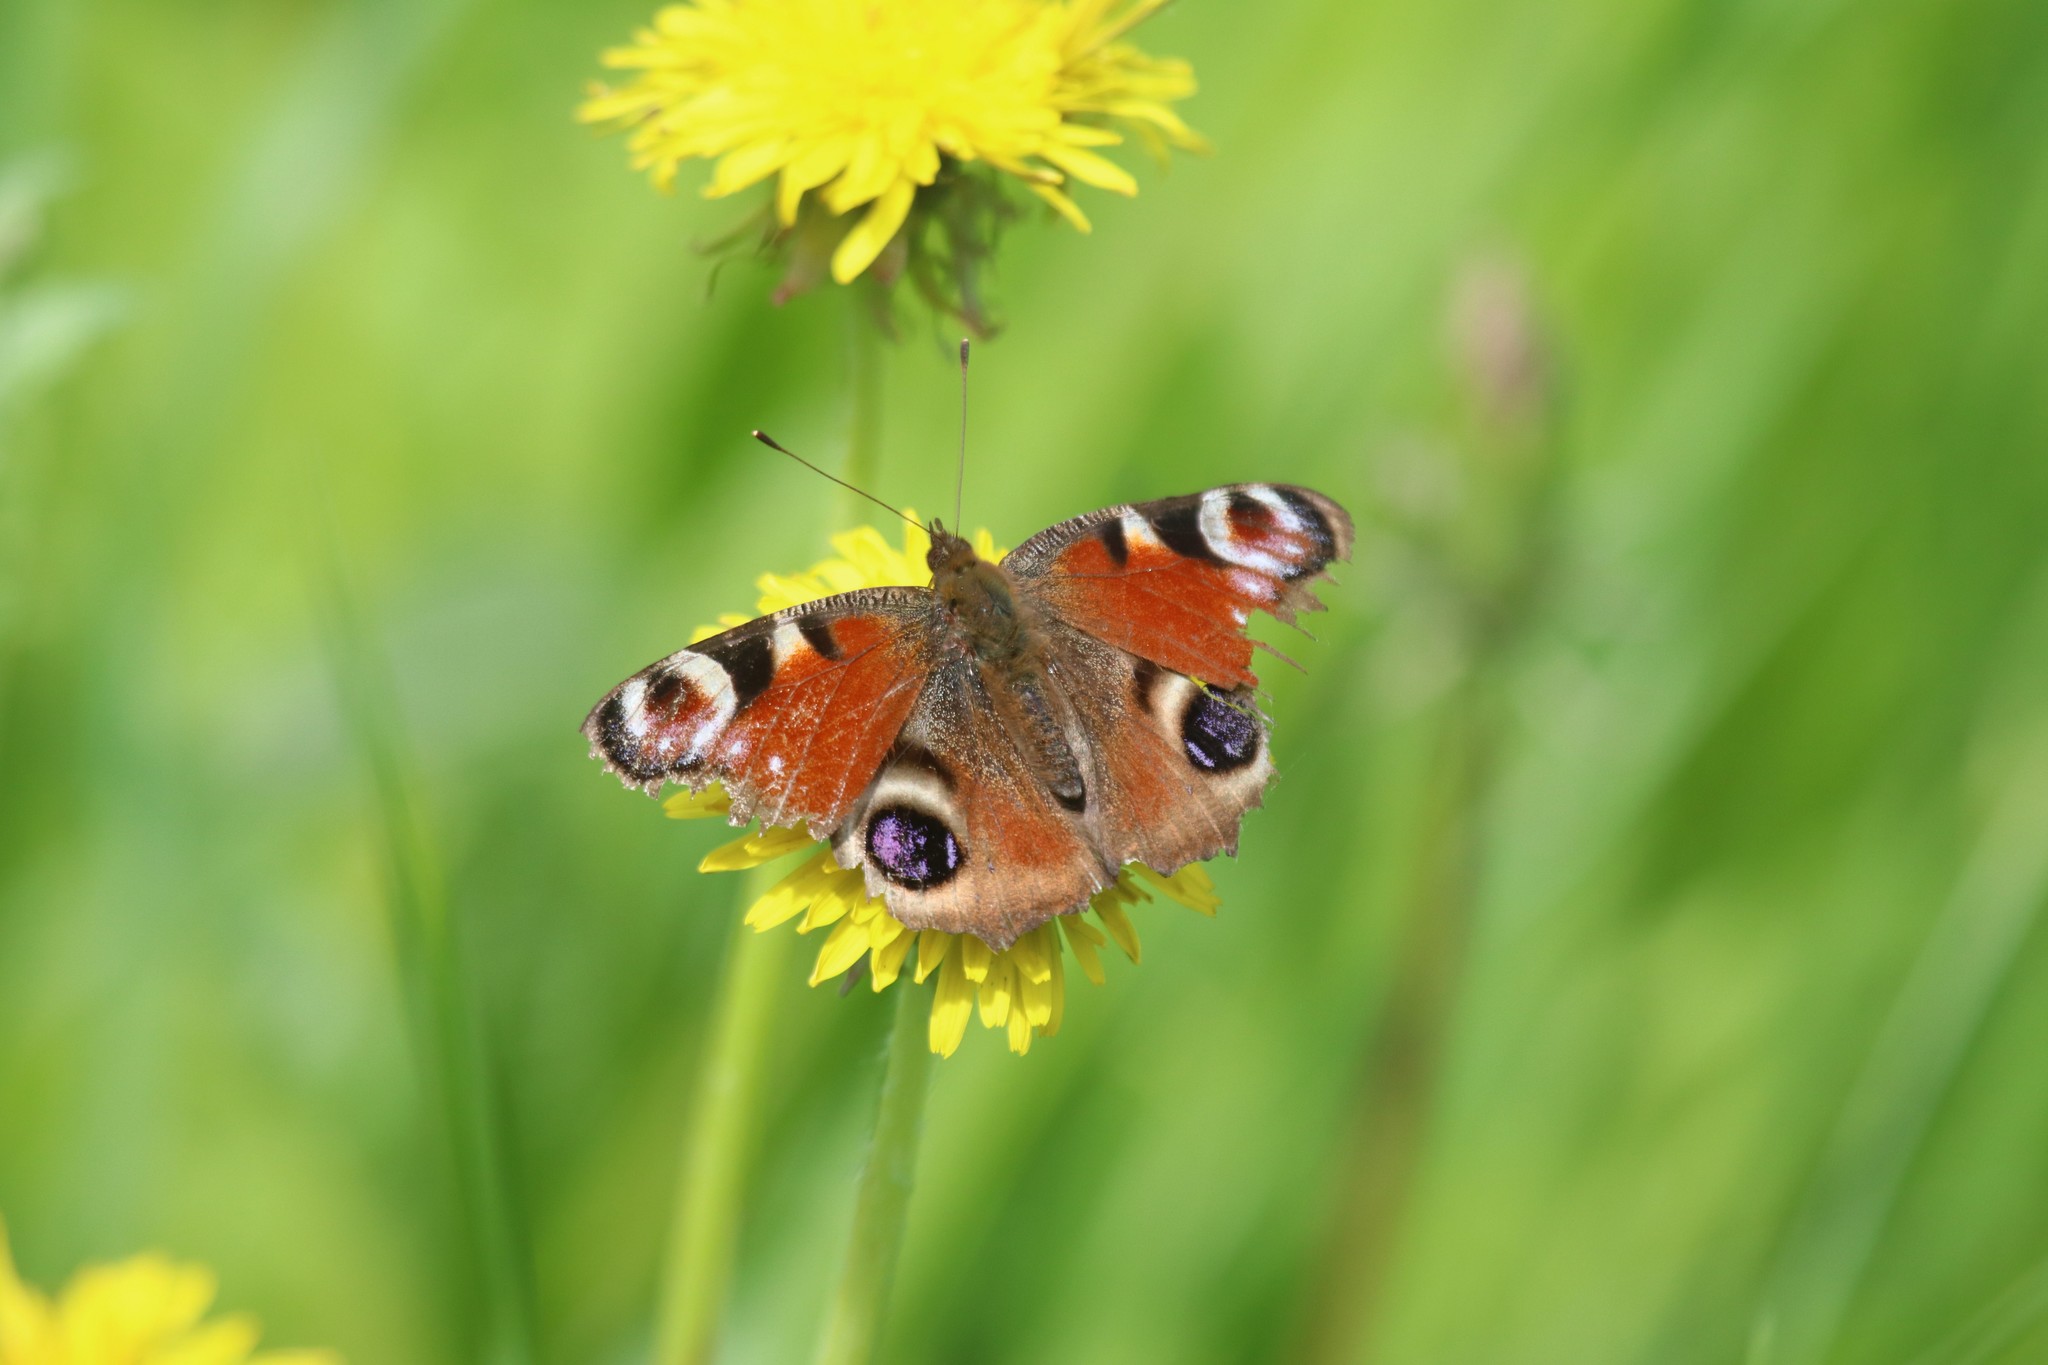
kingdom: Animalia
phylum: Arthropoda
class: Insecta
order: Lepidoptera
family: Nymphalidae
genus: Aglais
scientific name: Aglais io
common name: Peacock
